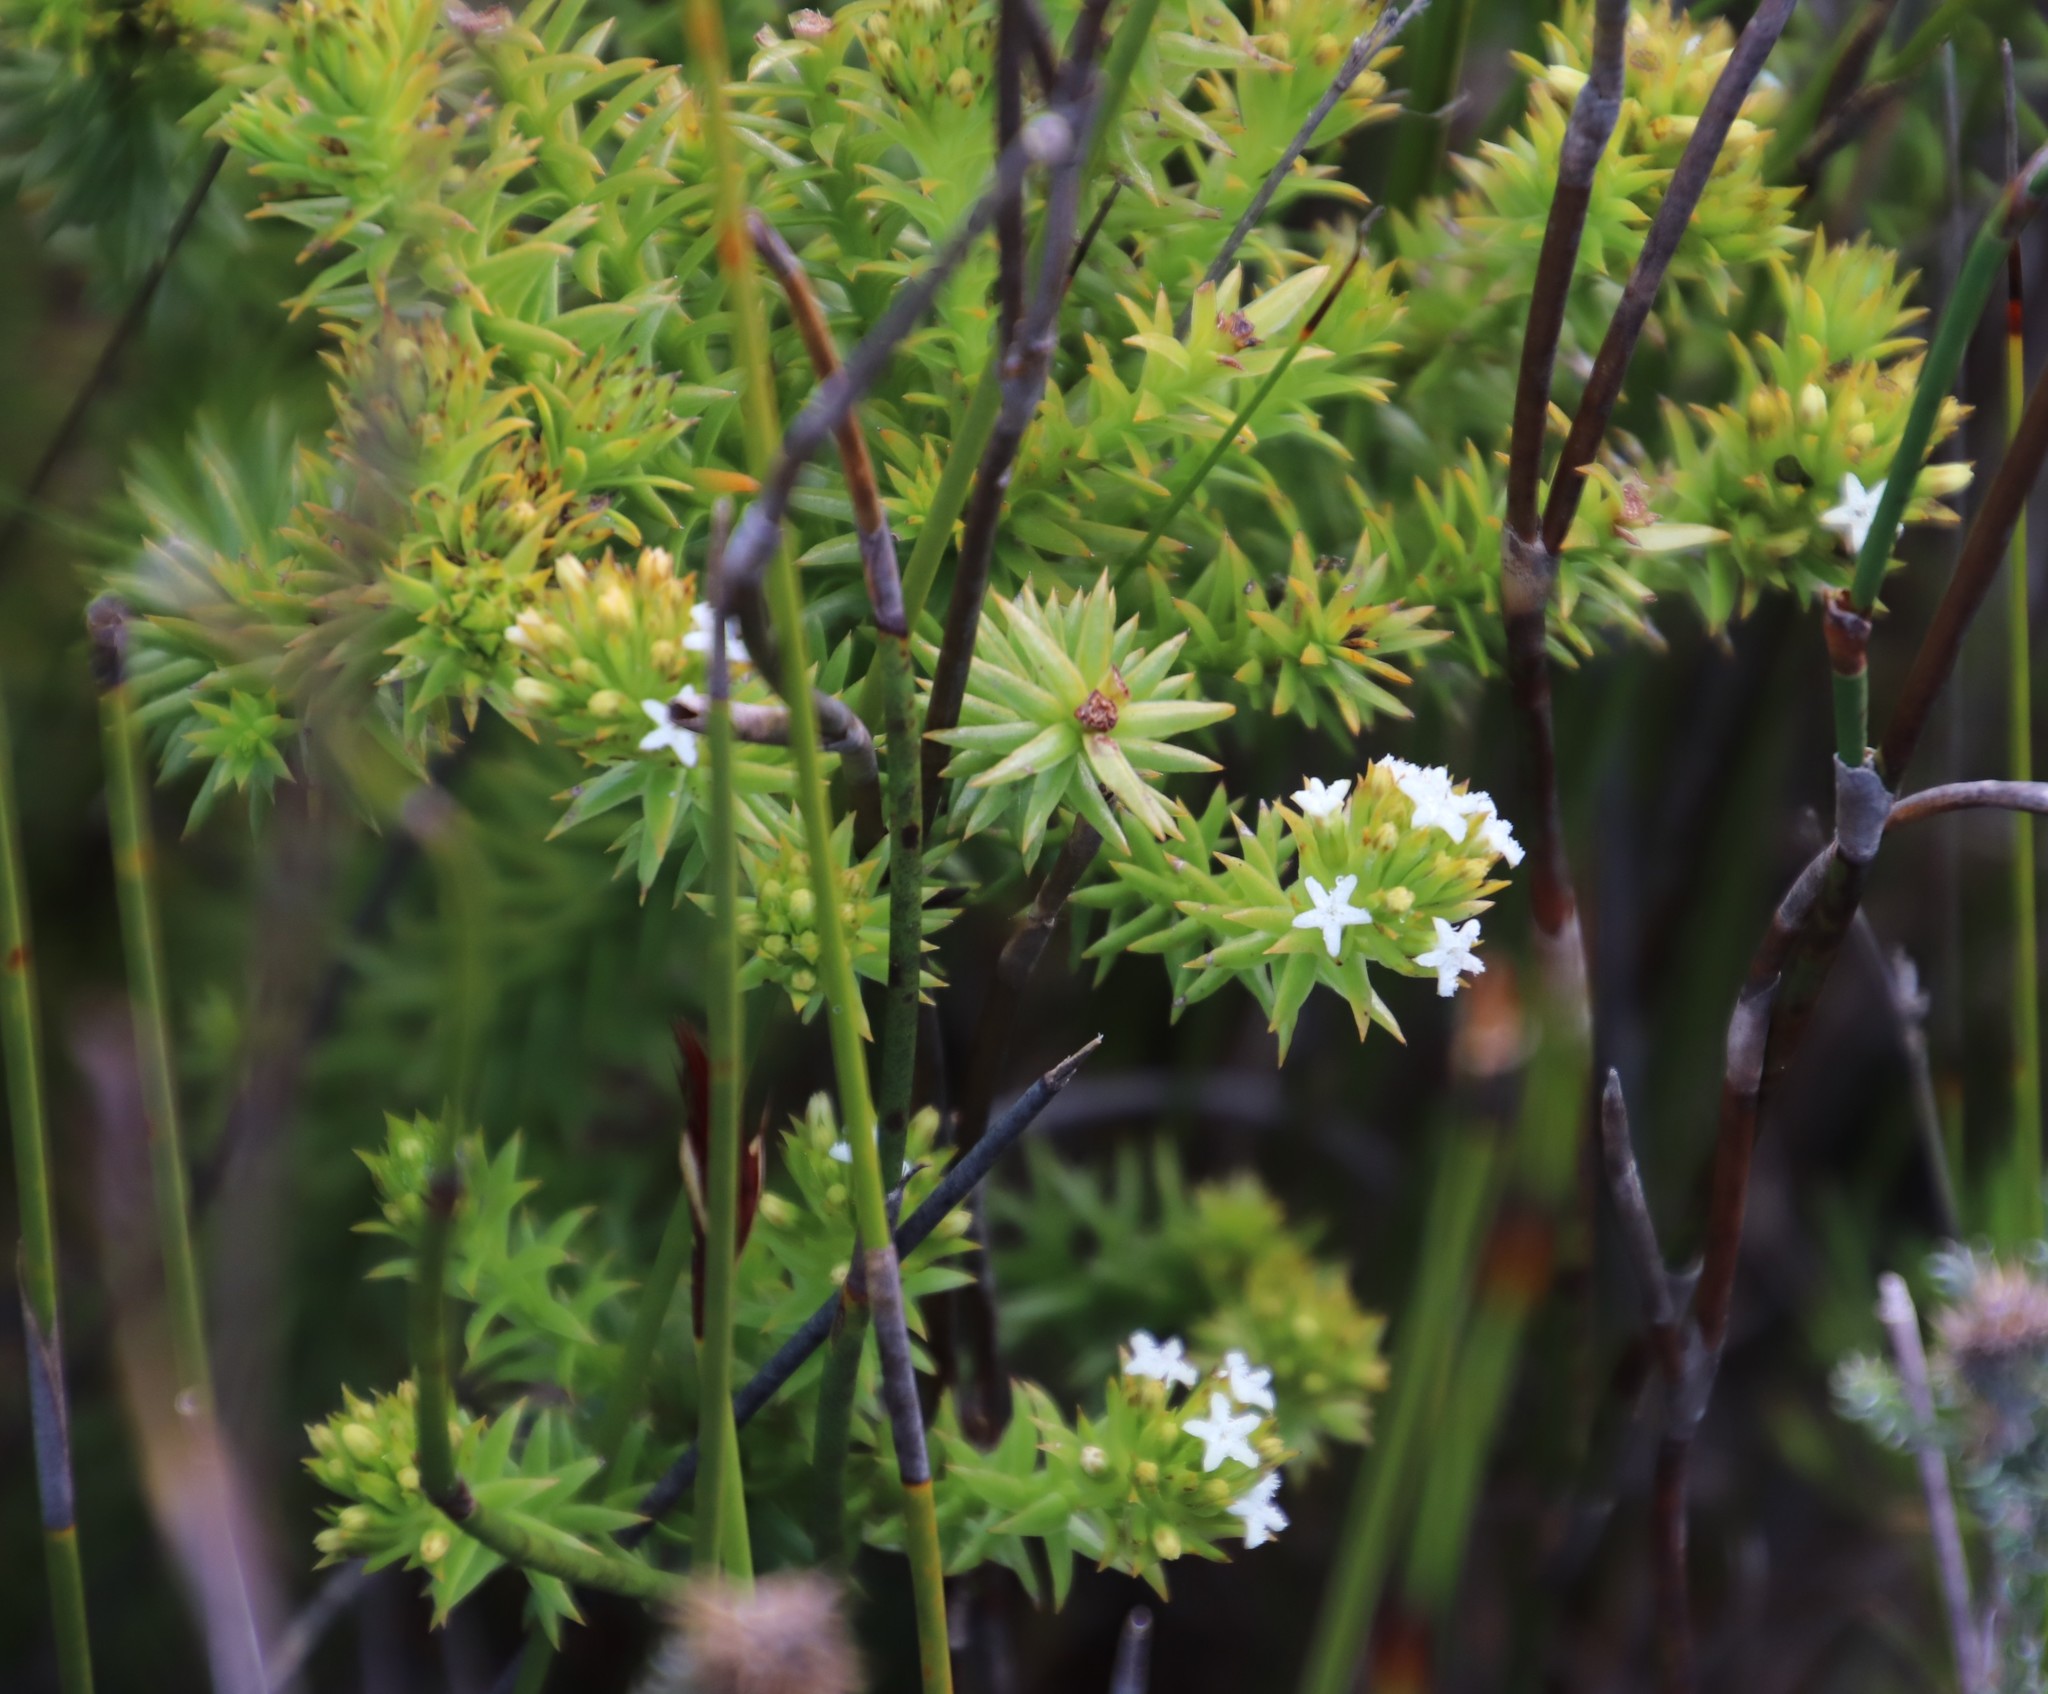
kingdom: Plantae
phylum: Tracheophyta
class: Magnoliopsida
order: Santalales
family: Thesiaceae
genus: Thesium
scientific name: Thesium viridifolium
